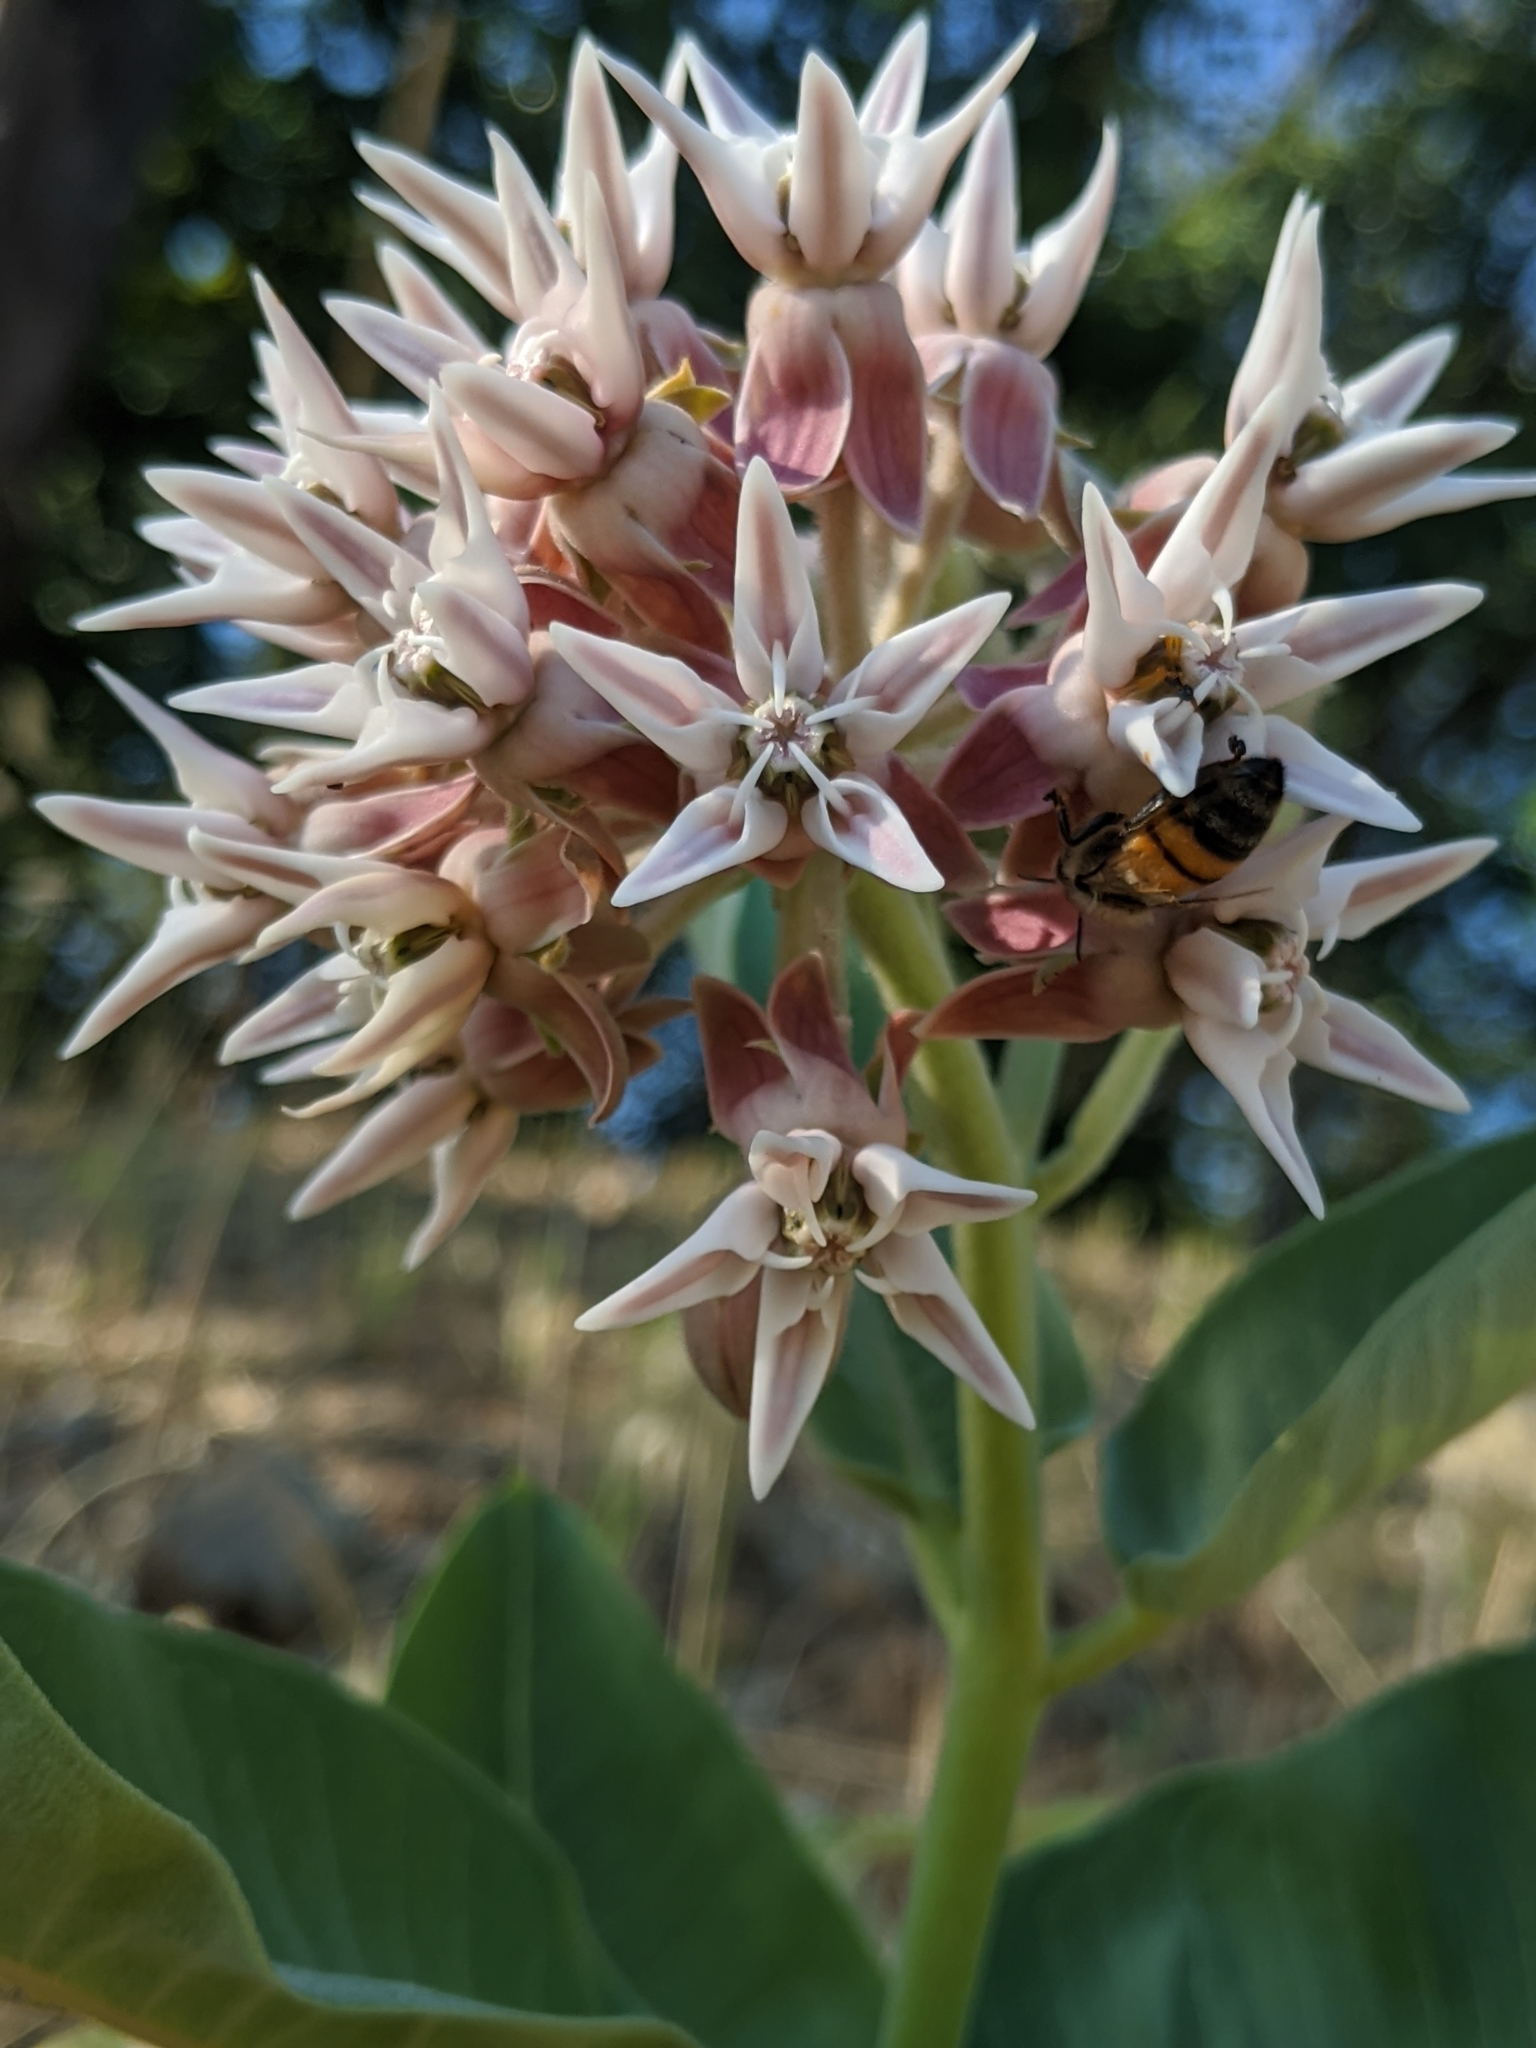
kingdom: Plantae
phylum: Tracheophyta
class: Magnoliopsida
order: Gentianales
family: Apocynaceae
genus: Asclepias
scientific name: Asclepias speciosa
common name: Showy milkweed
